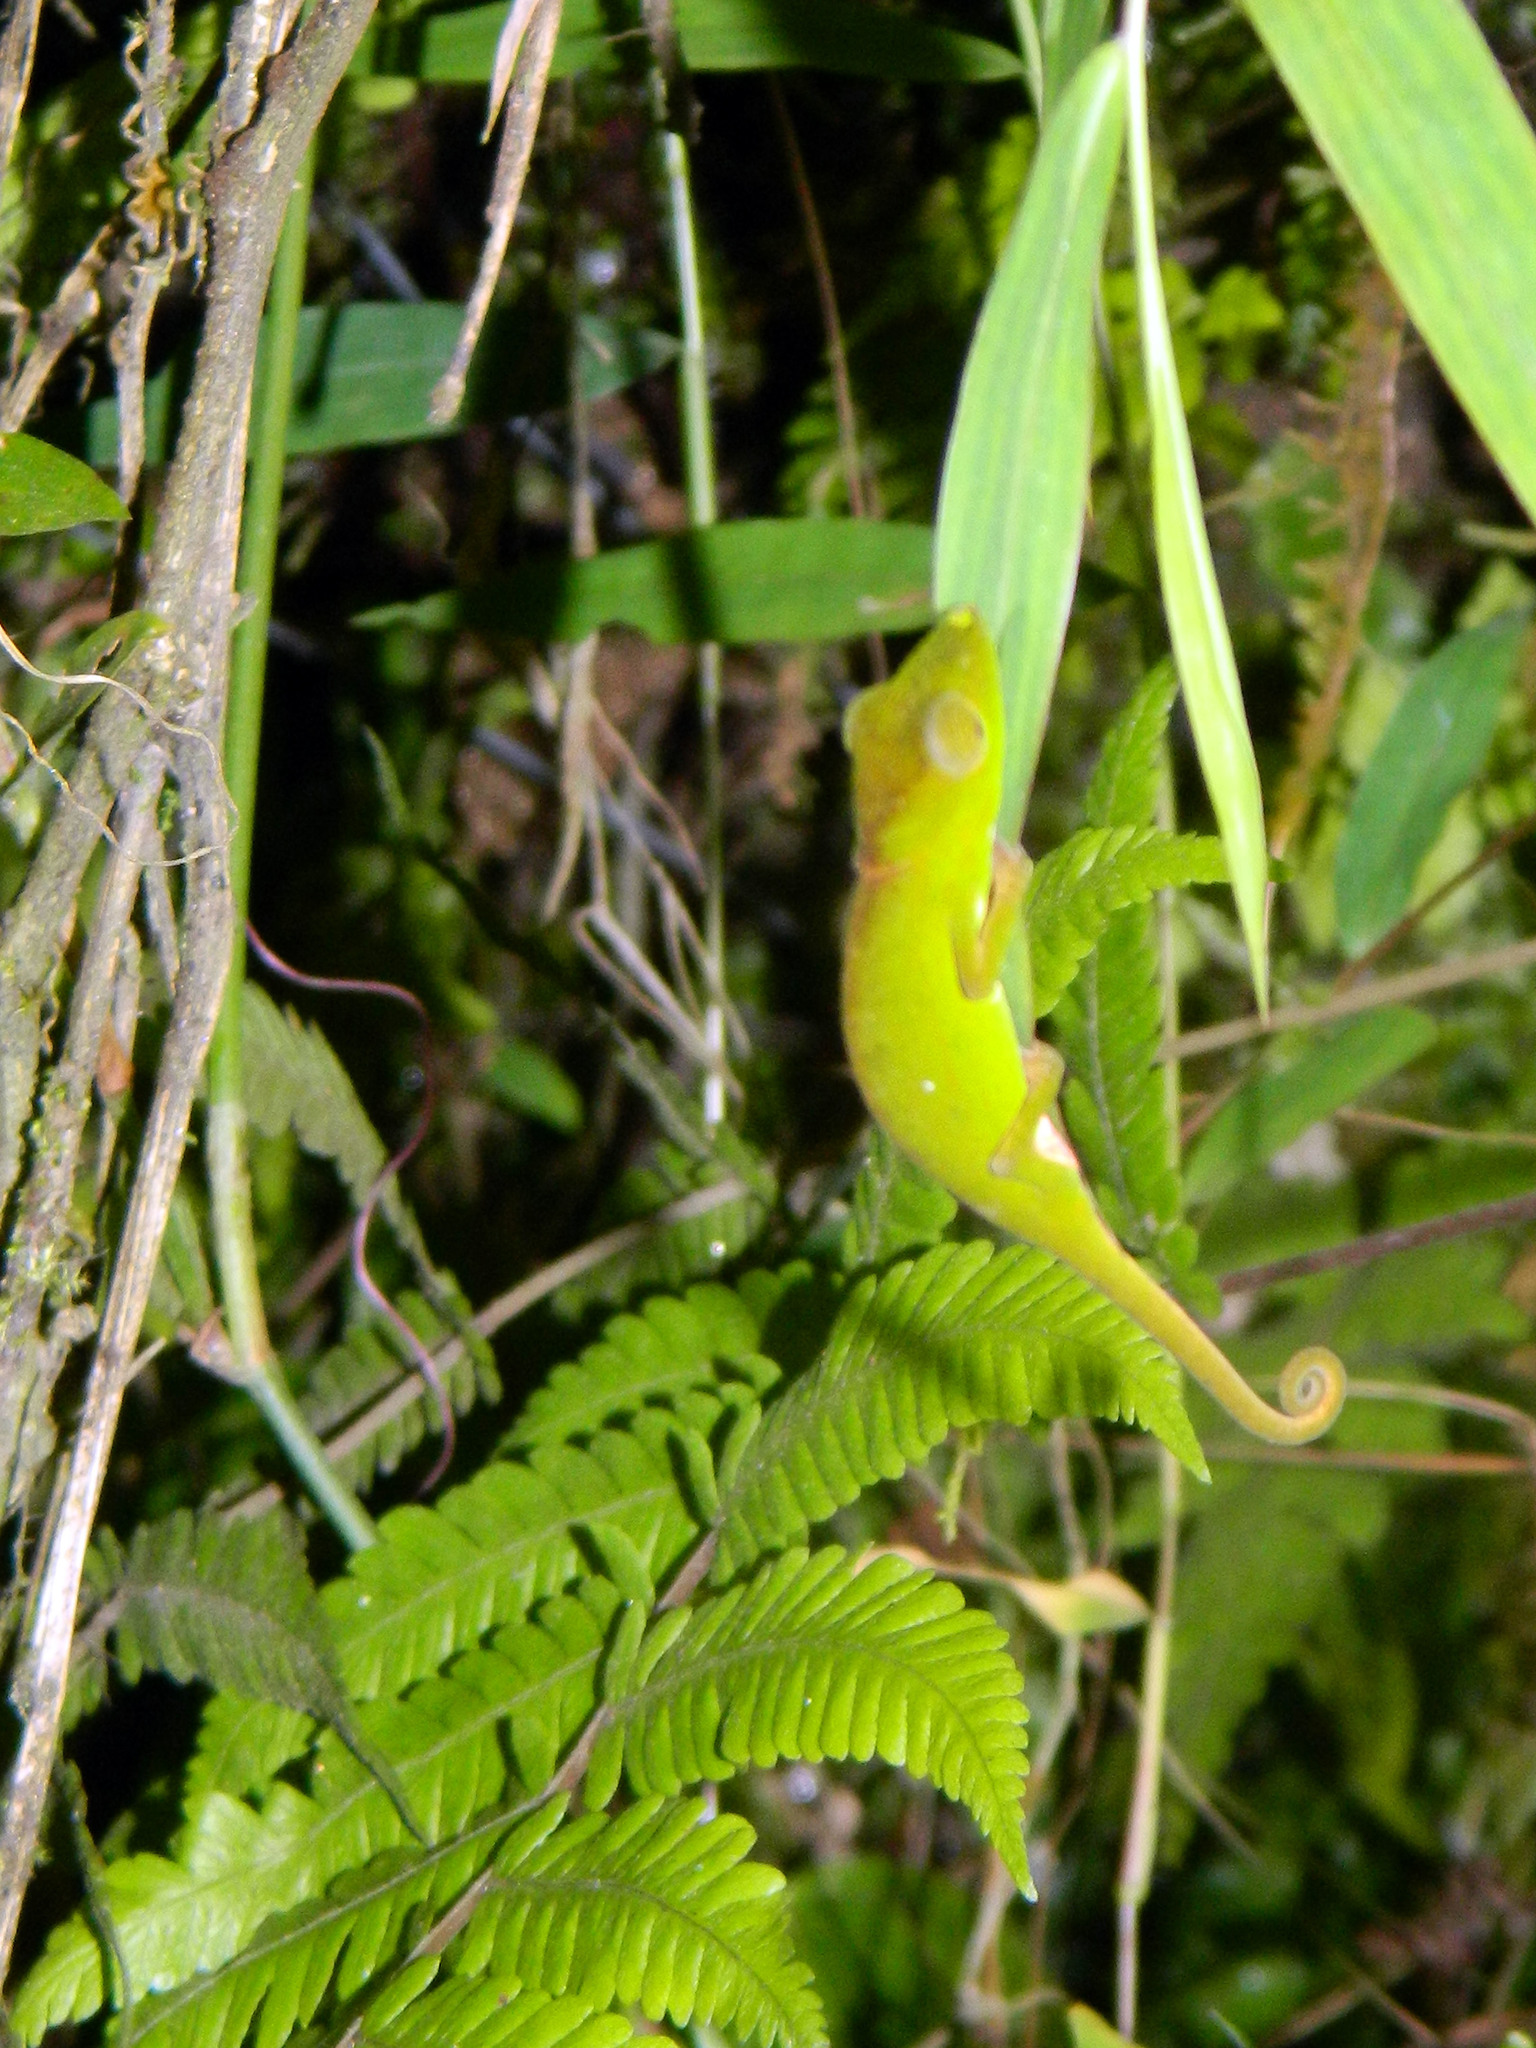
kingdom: Animalia
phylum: Chordata
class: Squamata
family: Chamaeleonidae
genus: Calumma
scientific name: Calumma glawi
